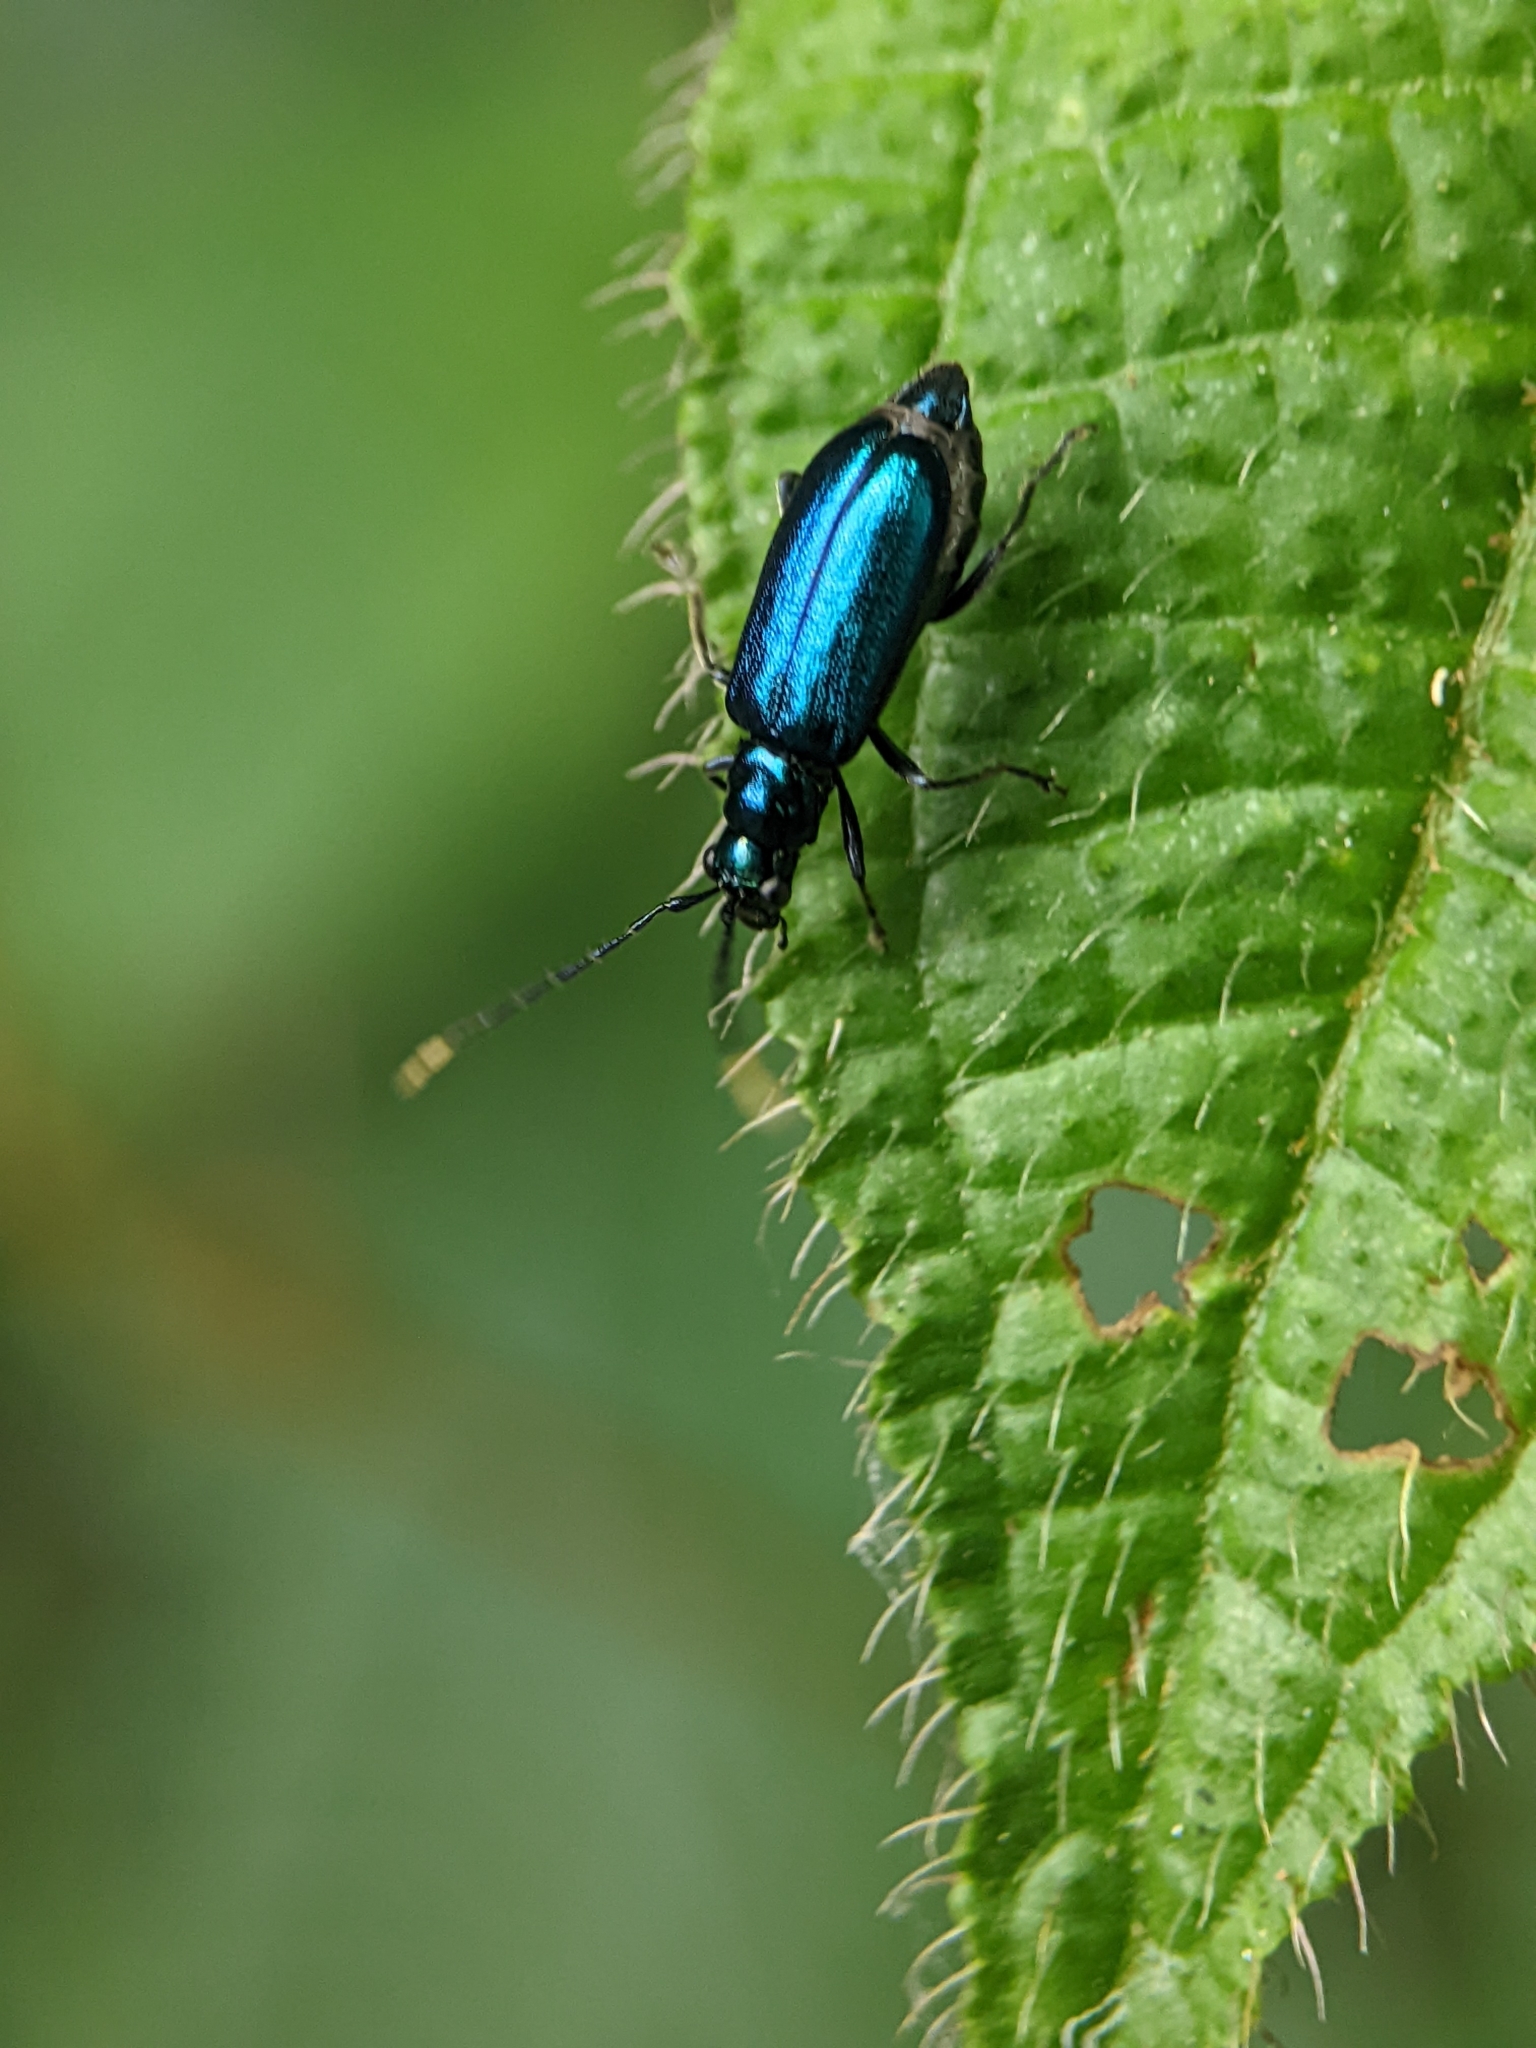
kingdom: Animalia
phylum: Arthropoda
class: Insecta
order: Coleoptera
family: Chrysomelidae
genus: Hoplosaenidea
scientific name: Hoplosaenidea
